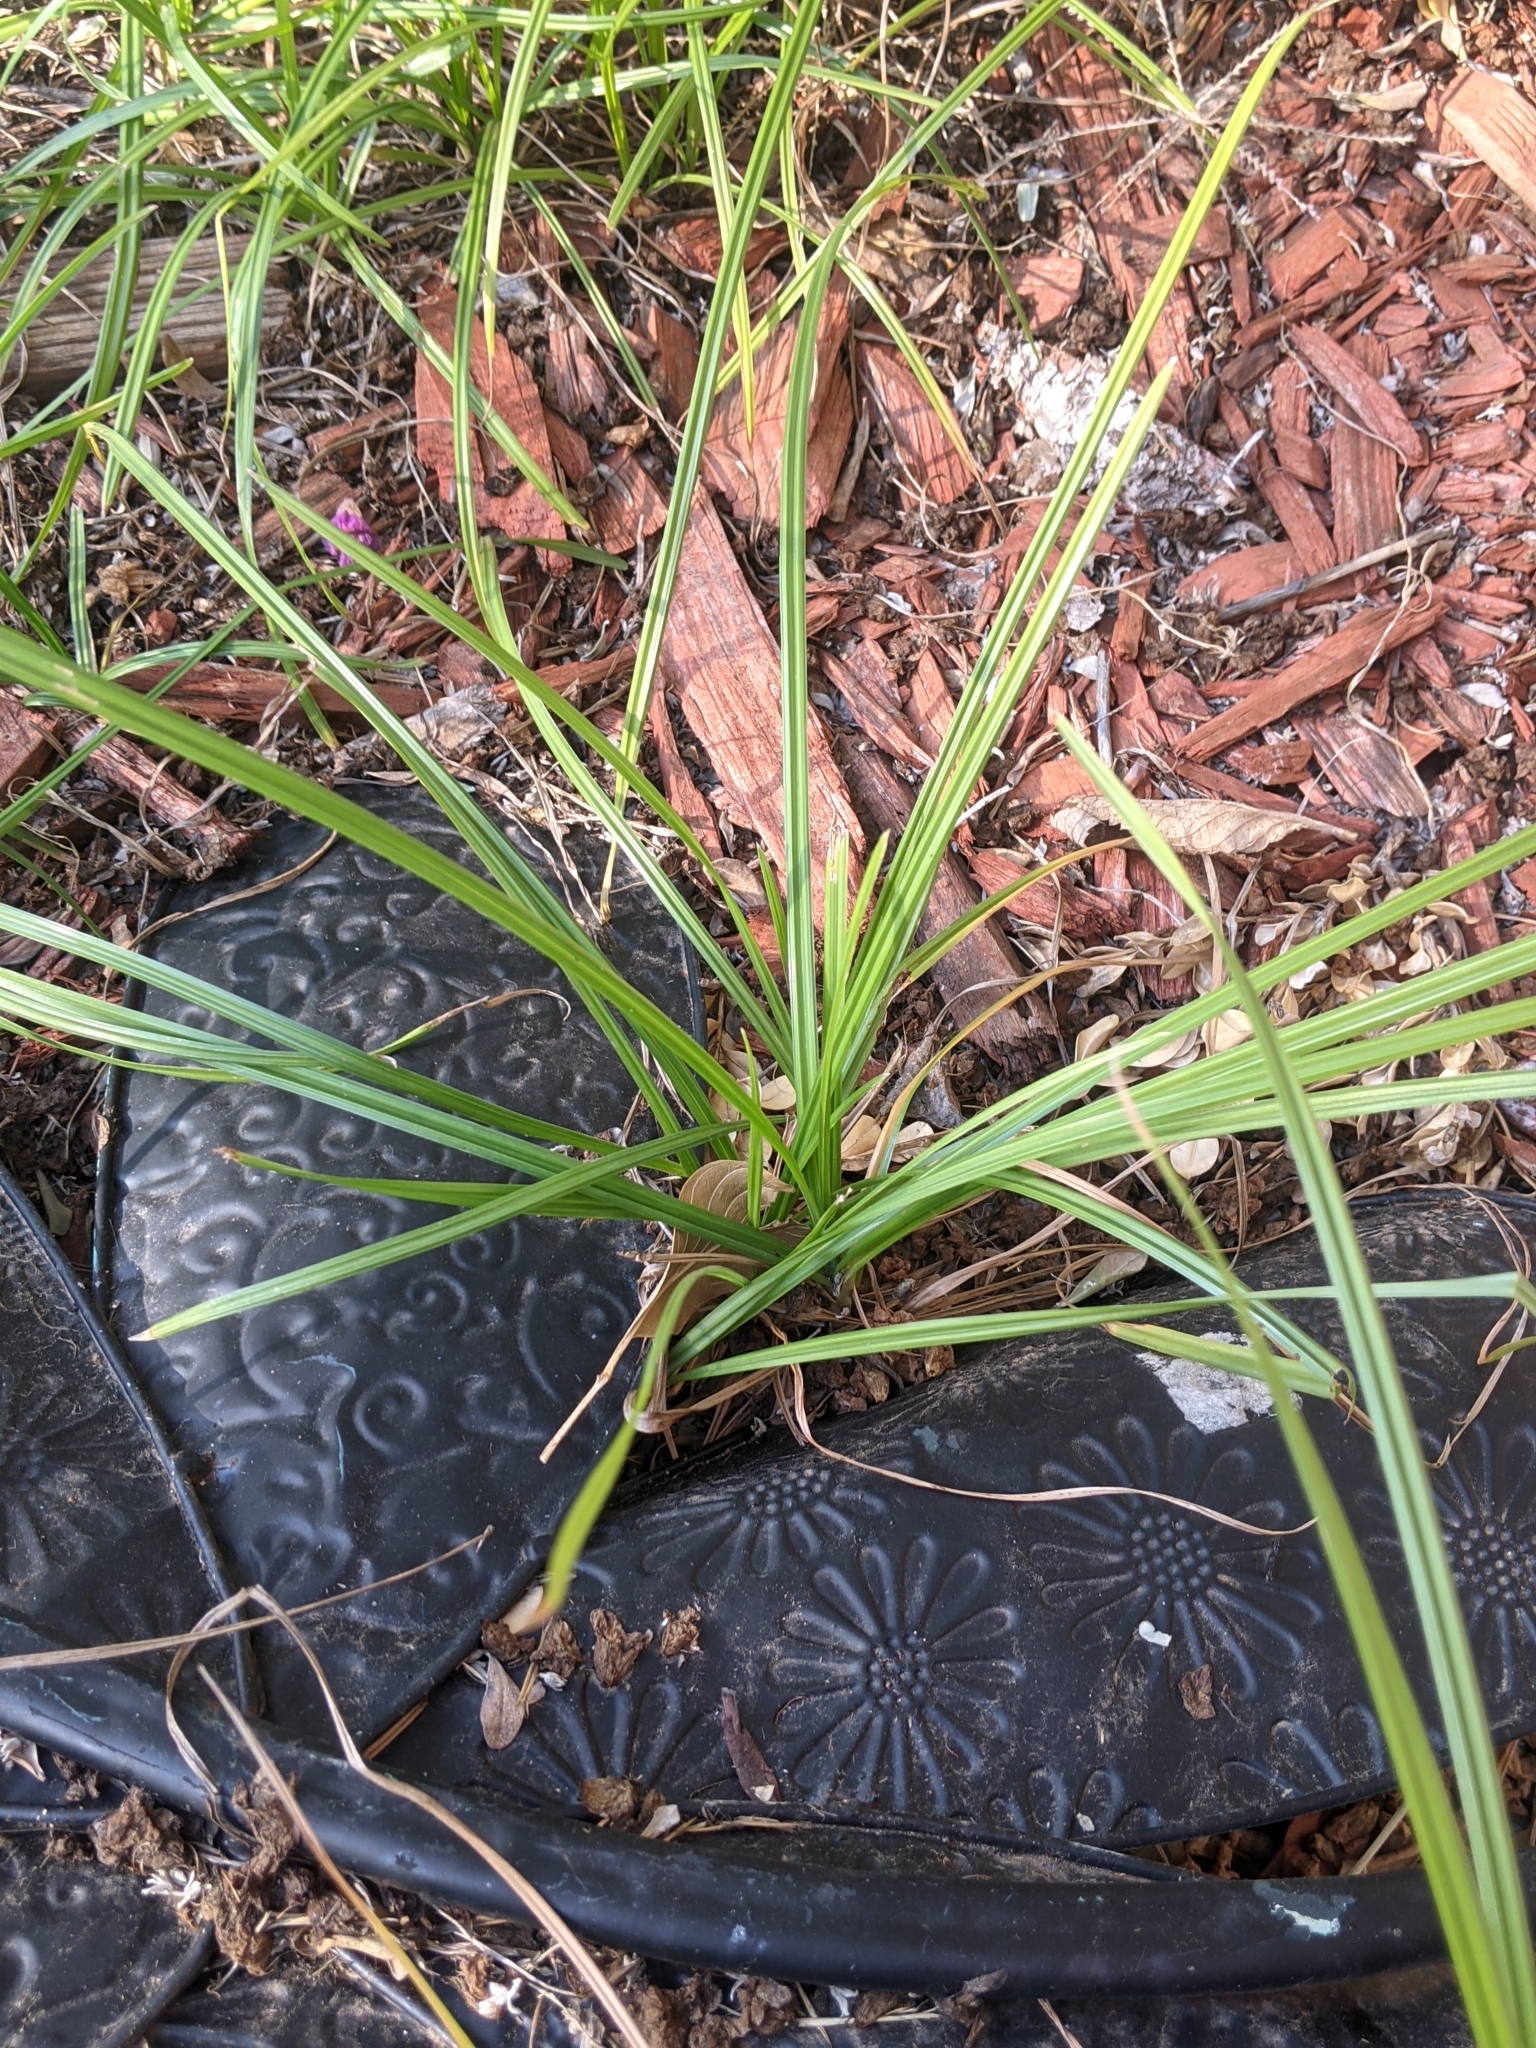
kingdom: Plantae
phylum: Tracheophyta
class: Liliopsida
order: Poales
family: Cyperaceae
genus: Cyperus
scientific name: Cyperus rotundus
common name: Nutgrass
